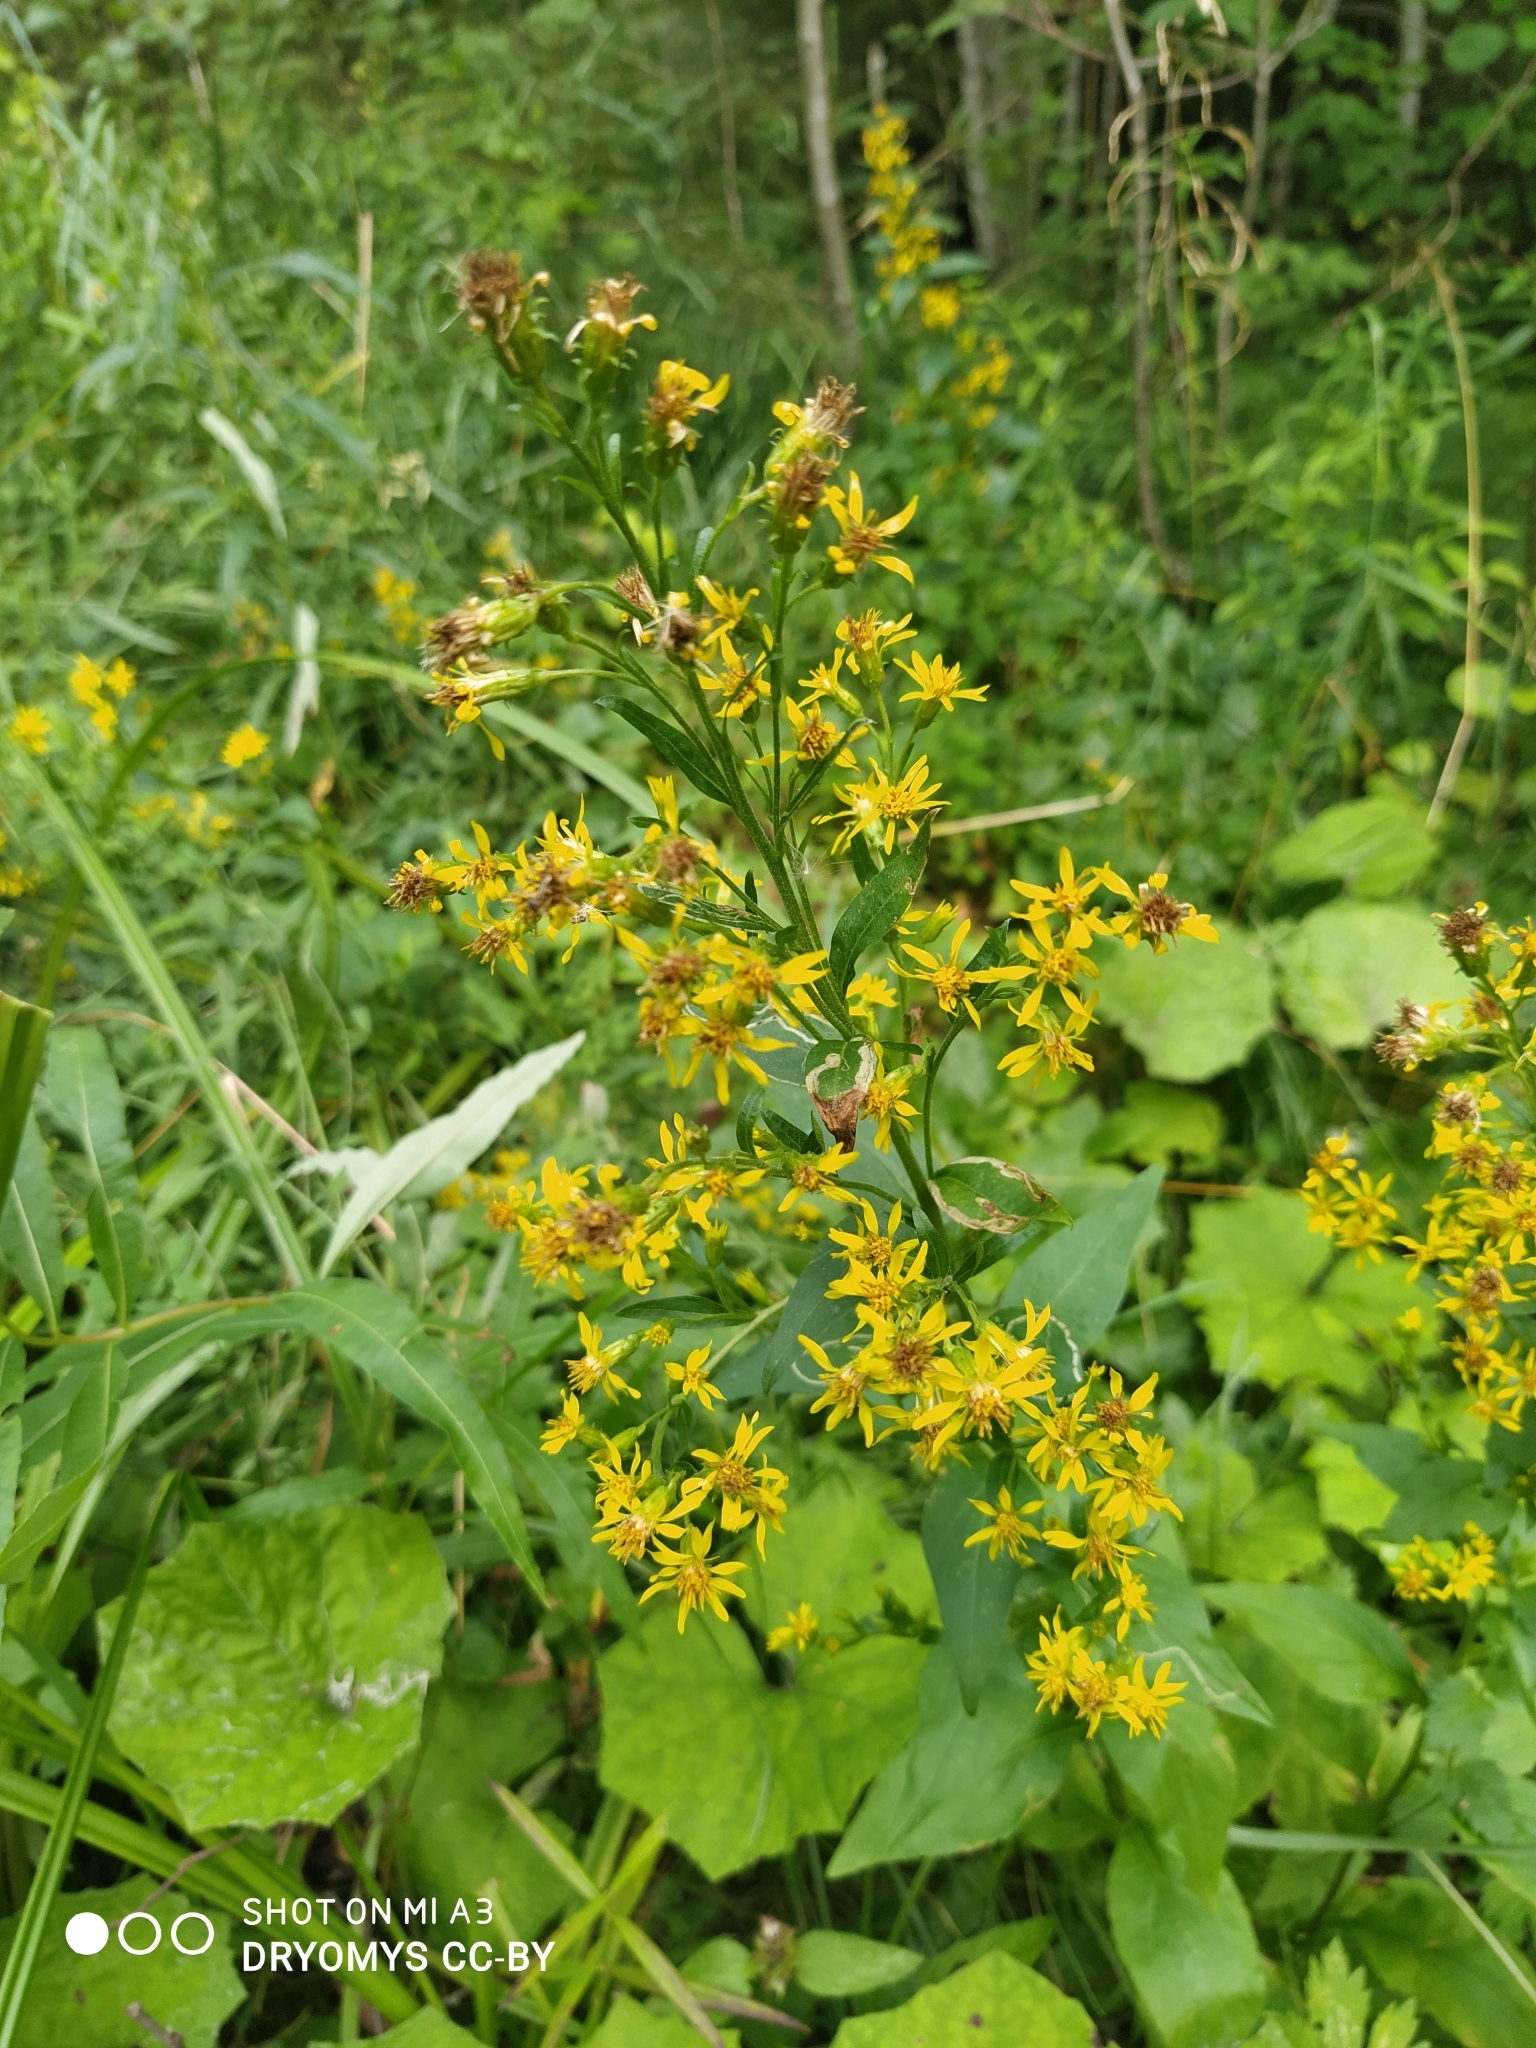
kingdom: Plantae
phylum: Tracheophyta
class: Magnoliopsida
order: Asterales
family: Asteraceae
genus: Solidago
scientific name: Solidago virgaurea
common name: Goldenrod
